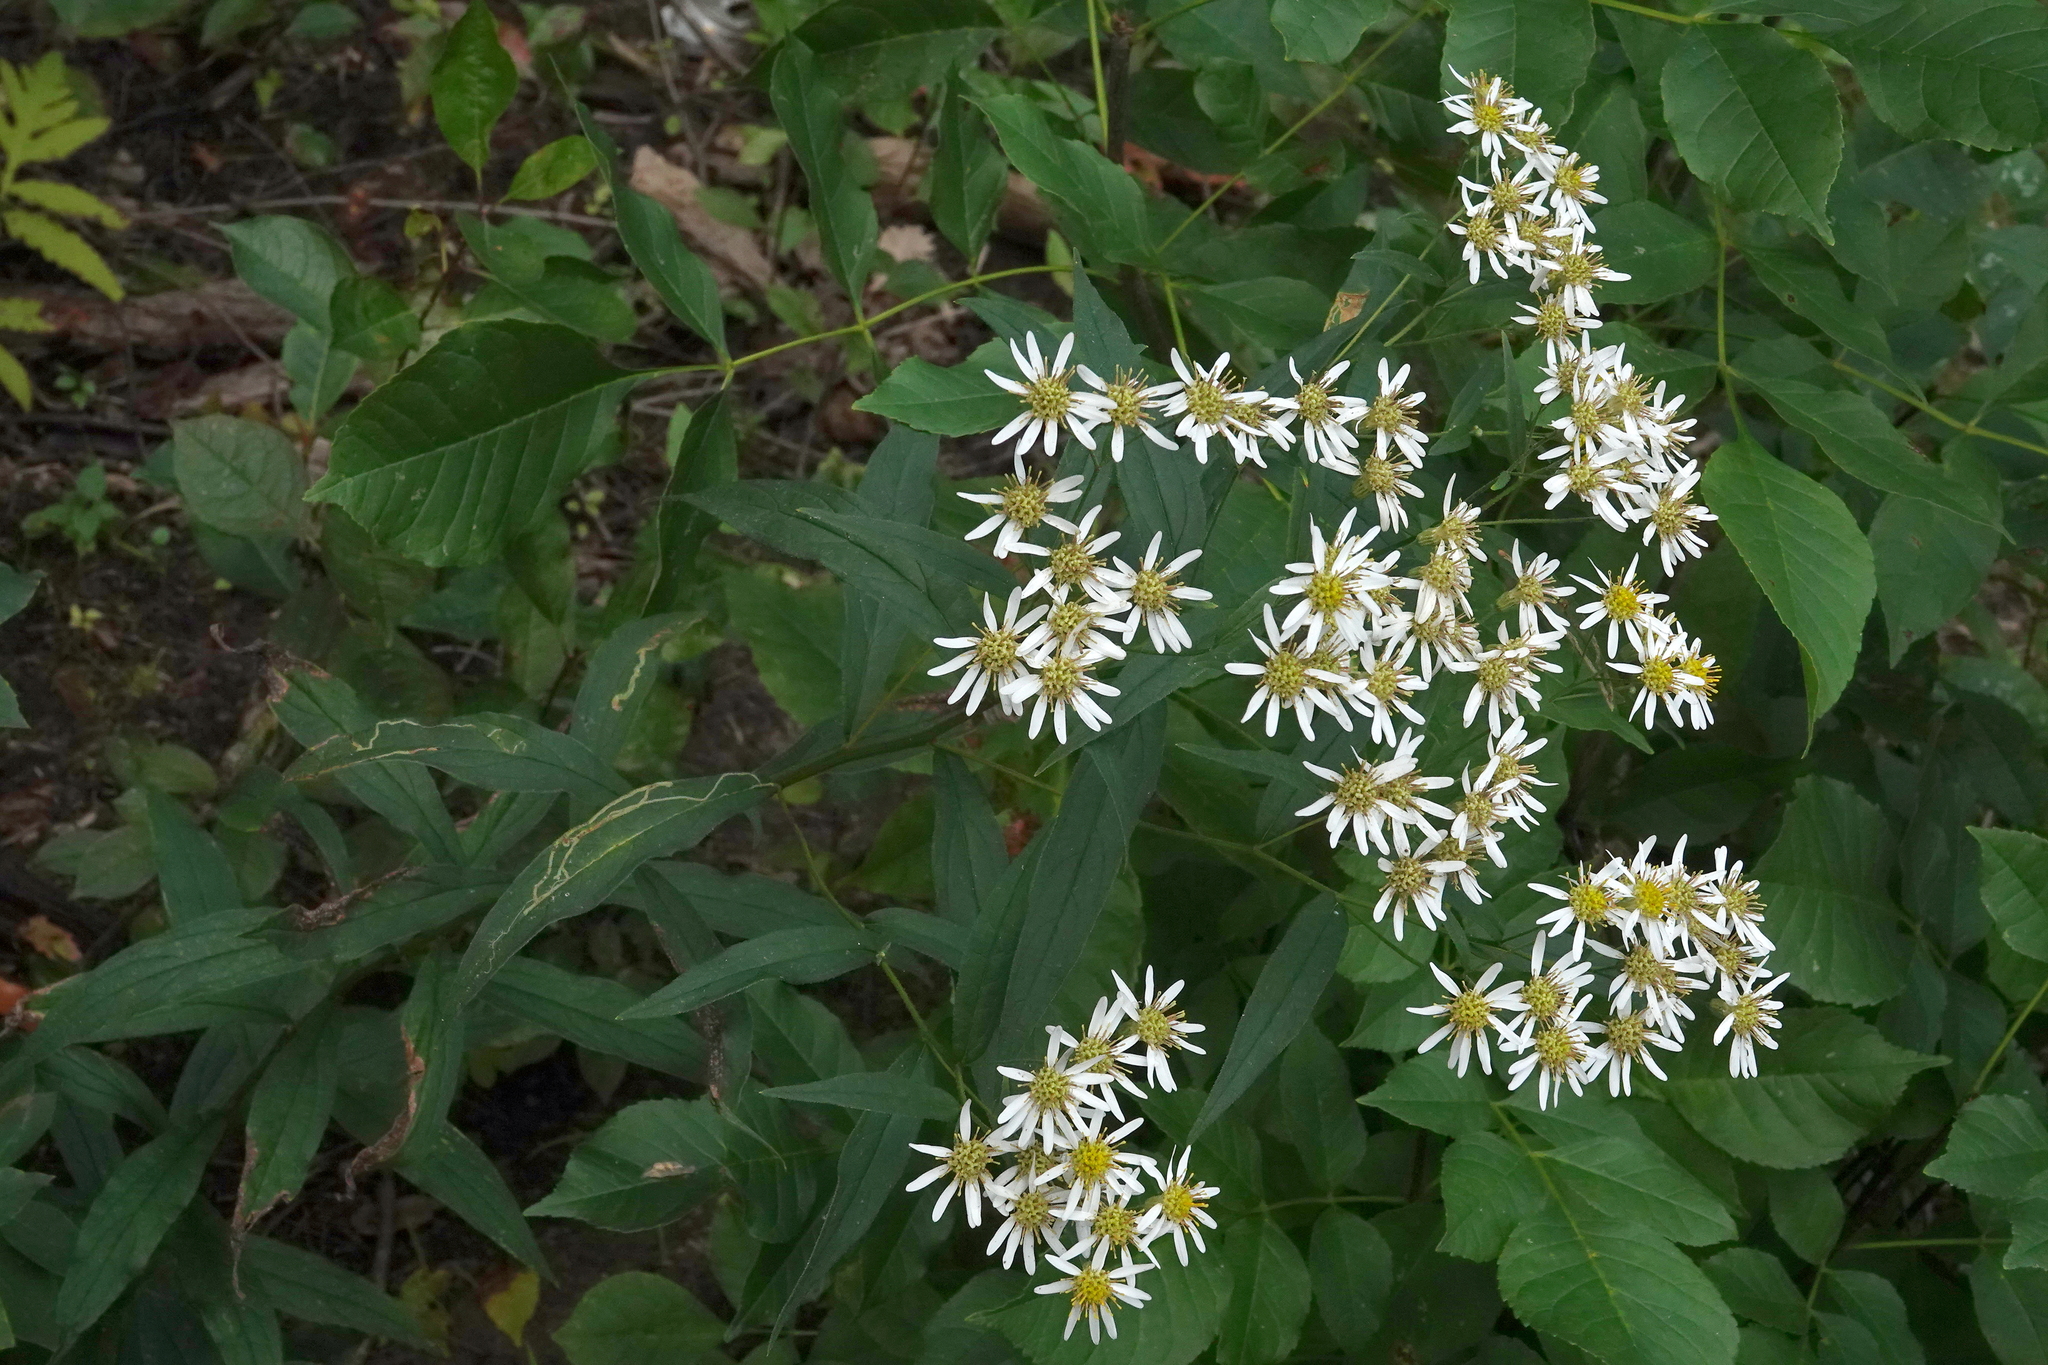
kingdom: Plantae
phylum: Tracheophyta
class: Magnoliopsida
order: Asterales
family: Asteraceae
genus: Doellingeria
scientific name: Doellingeria umbellata
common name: Flat-top white aster
